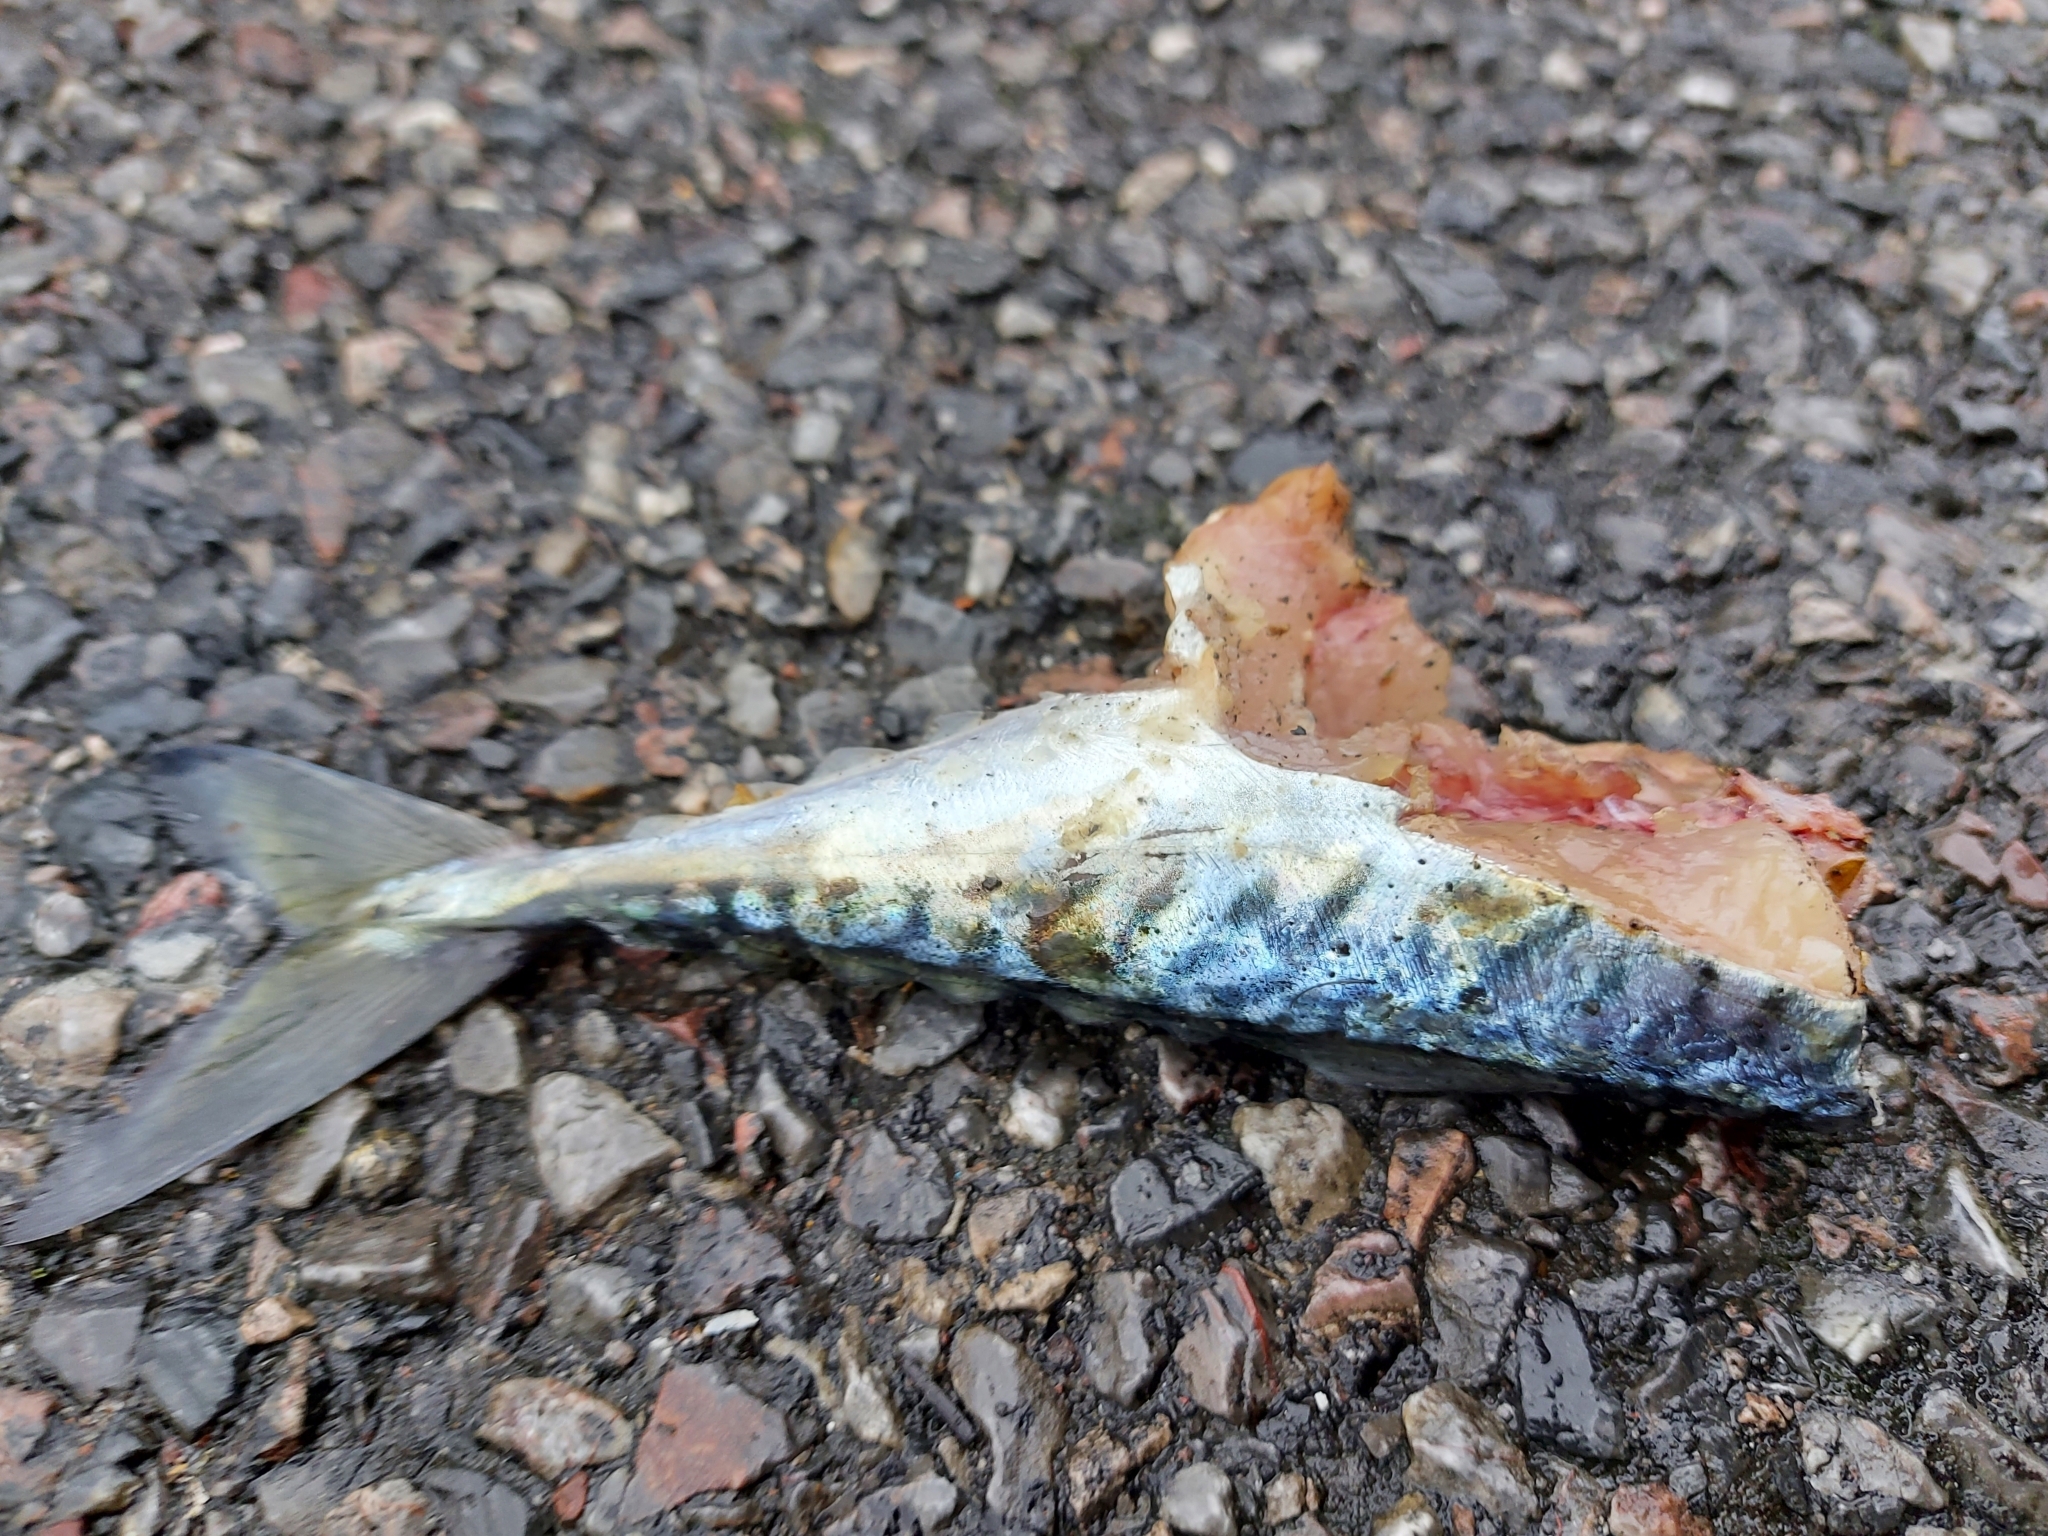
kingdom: Animalia
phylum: Chordata
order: Perciformes
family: Scombridae
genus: Scomber
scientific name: Scomber scombrus
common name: Mackerel
